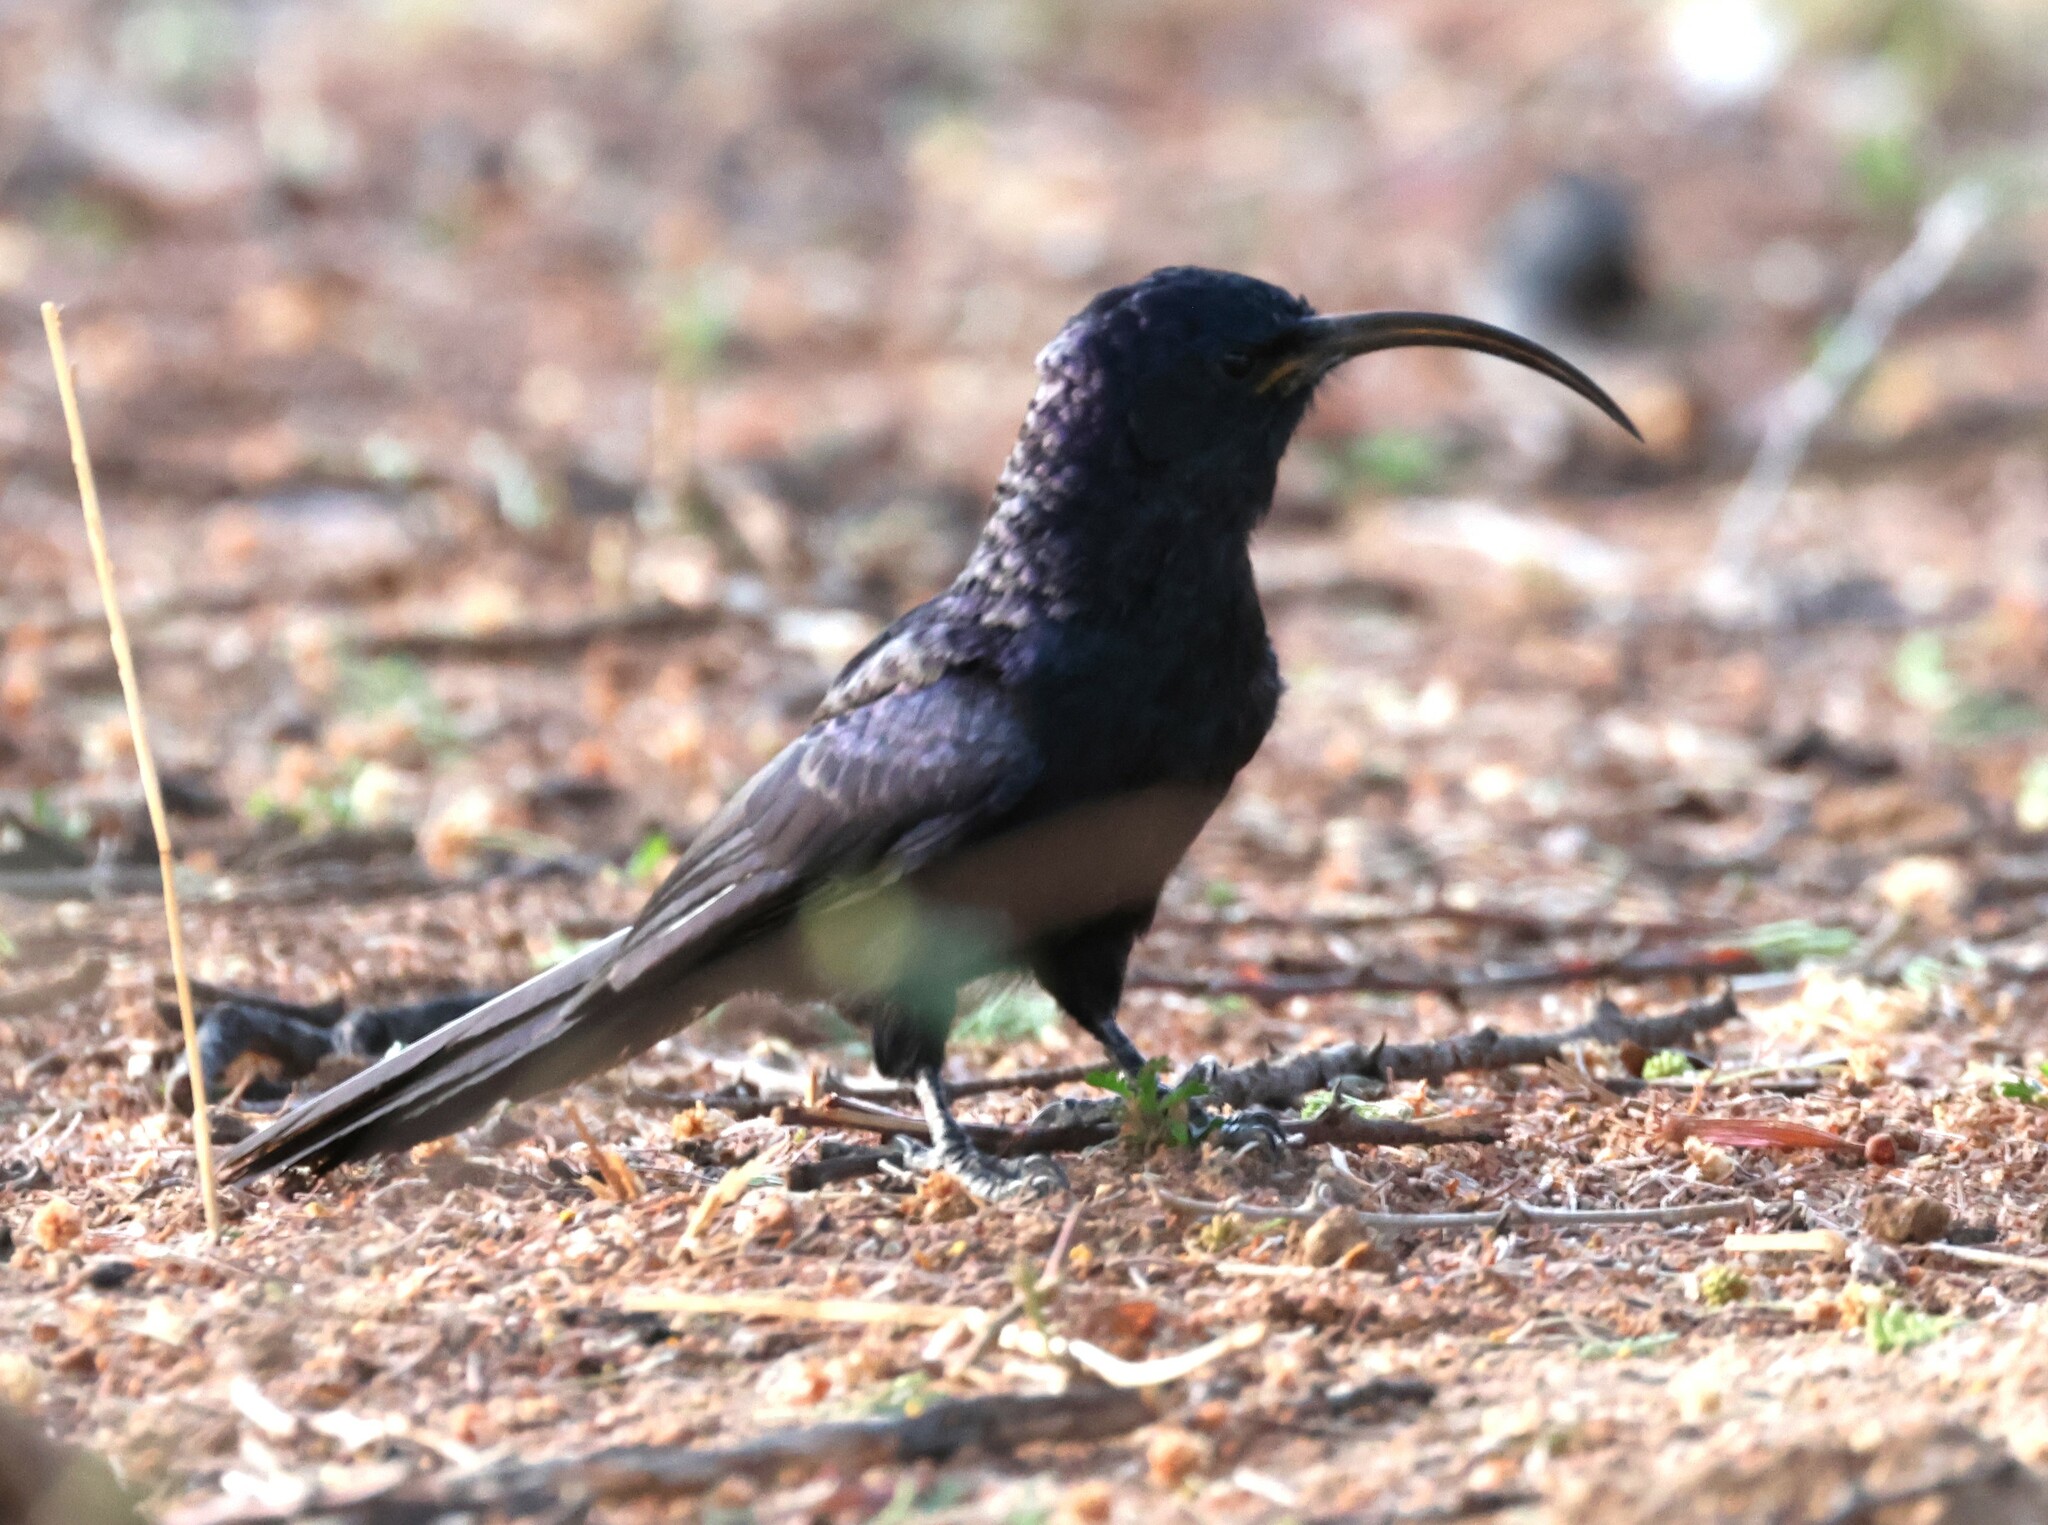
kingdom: Animalia
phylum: Chordata
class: Aves
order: Bucerotiformes
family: Phoeniculidae
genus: Rhinopomastus
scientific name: Rhinopomastus cyanomelas
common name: Common scimitarbill
